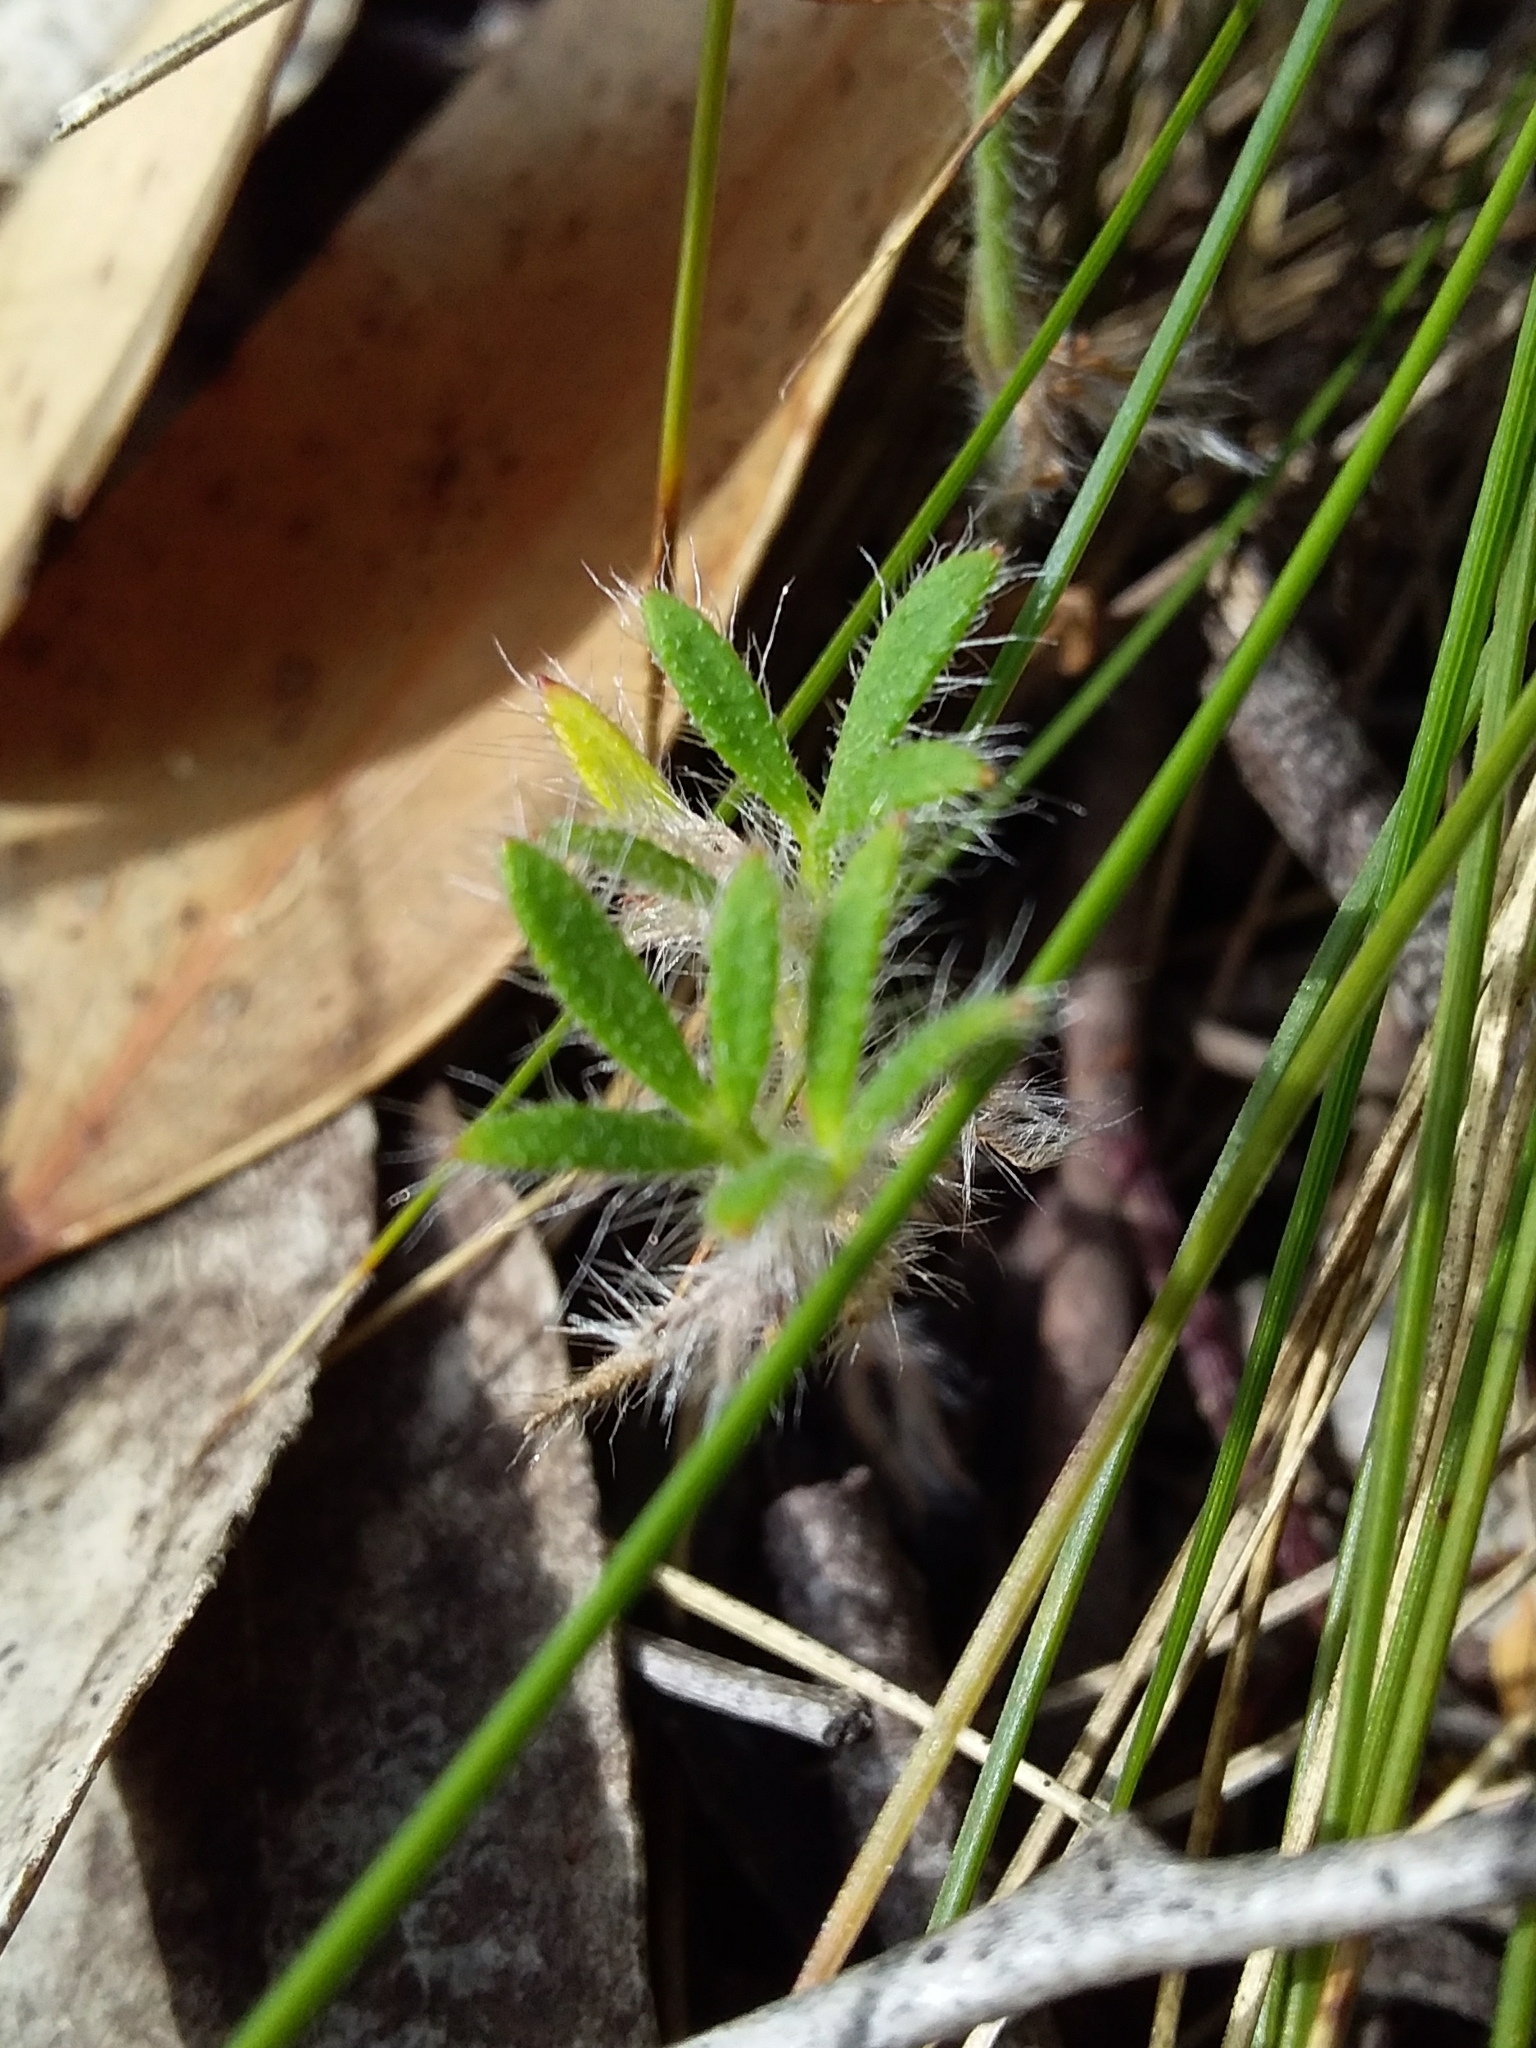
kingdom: Plantae
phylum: Tracheophyta
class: Magnoliopsida
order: Apiales
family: Apiaceae
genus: Xanthosia
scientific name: Xanthosia huegelii
